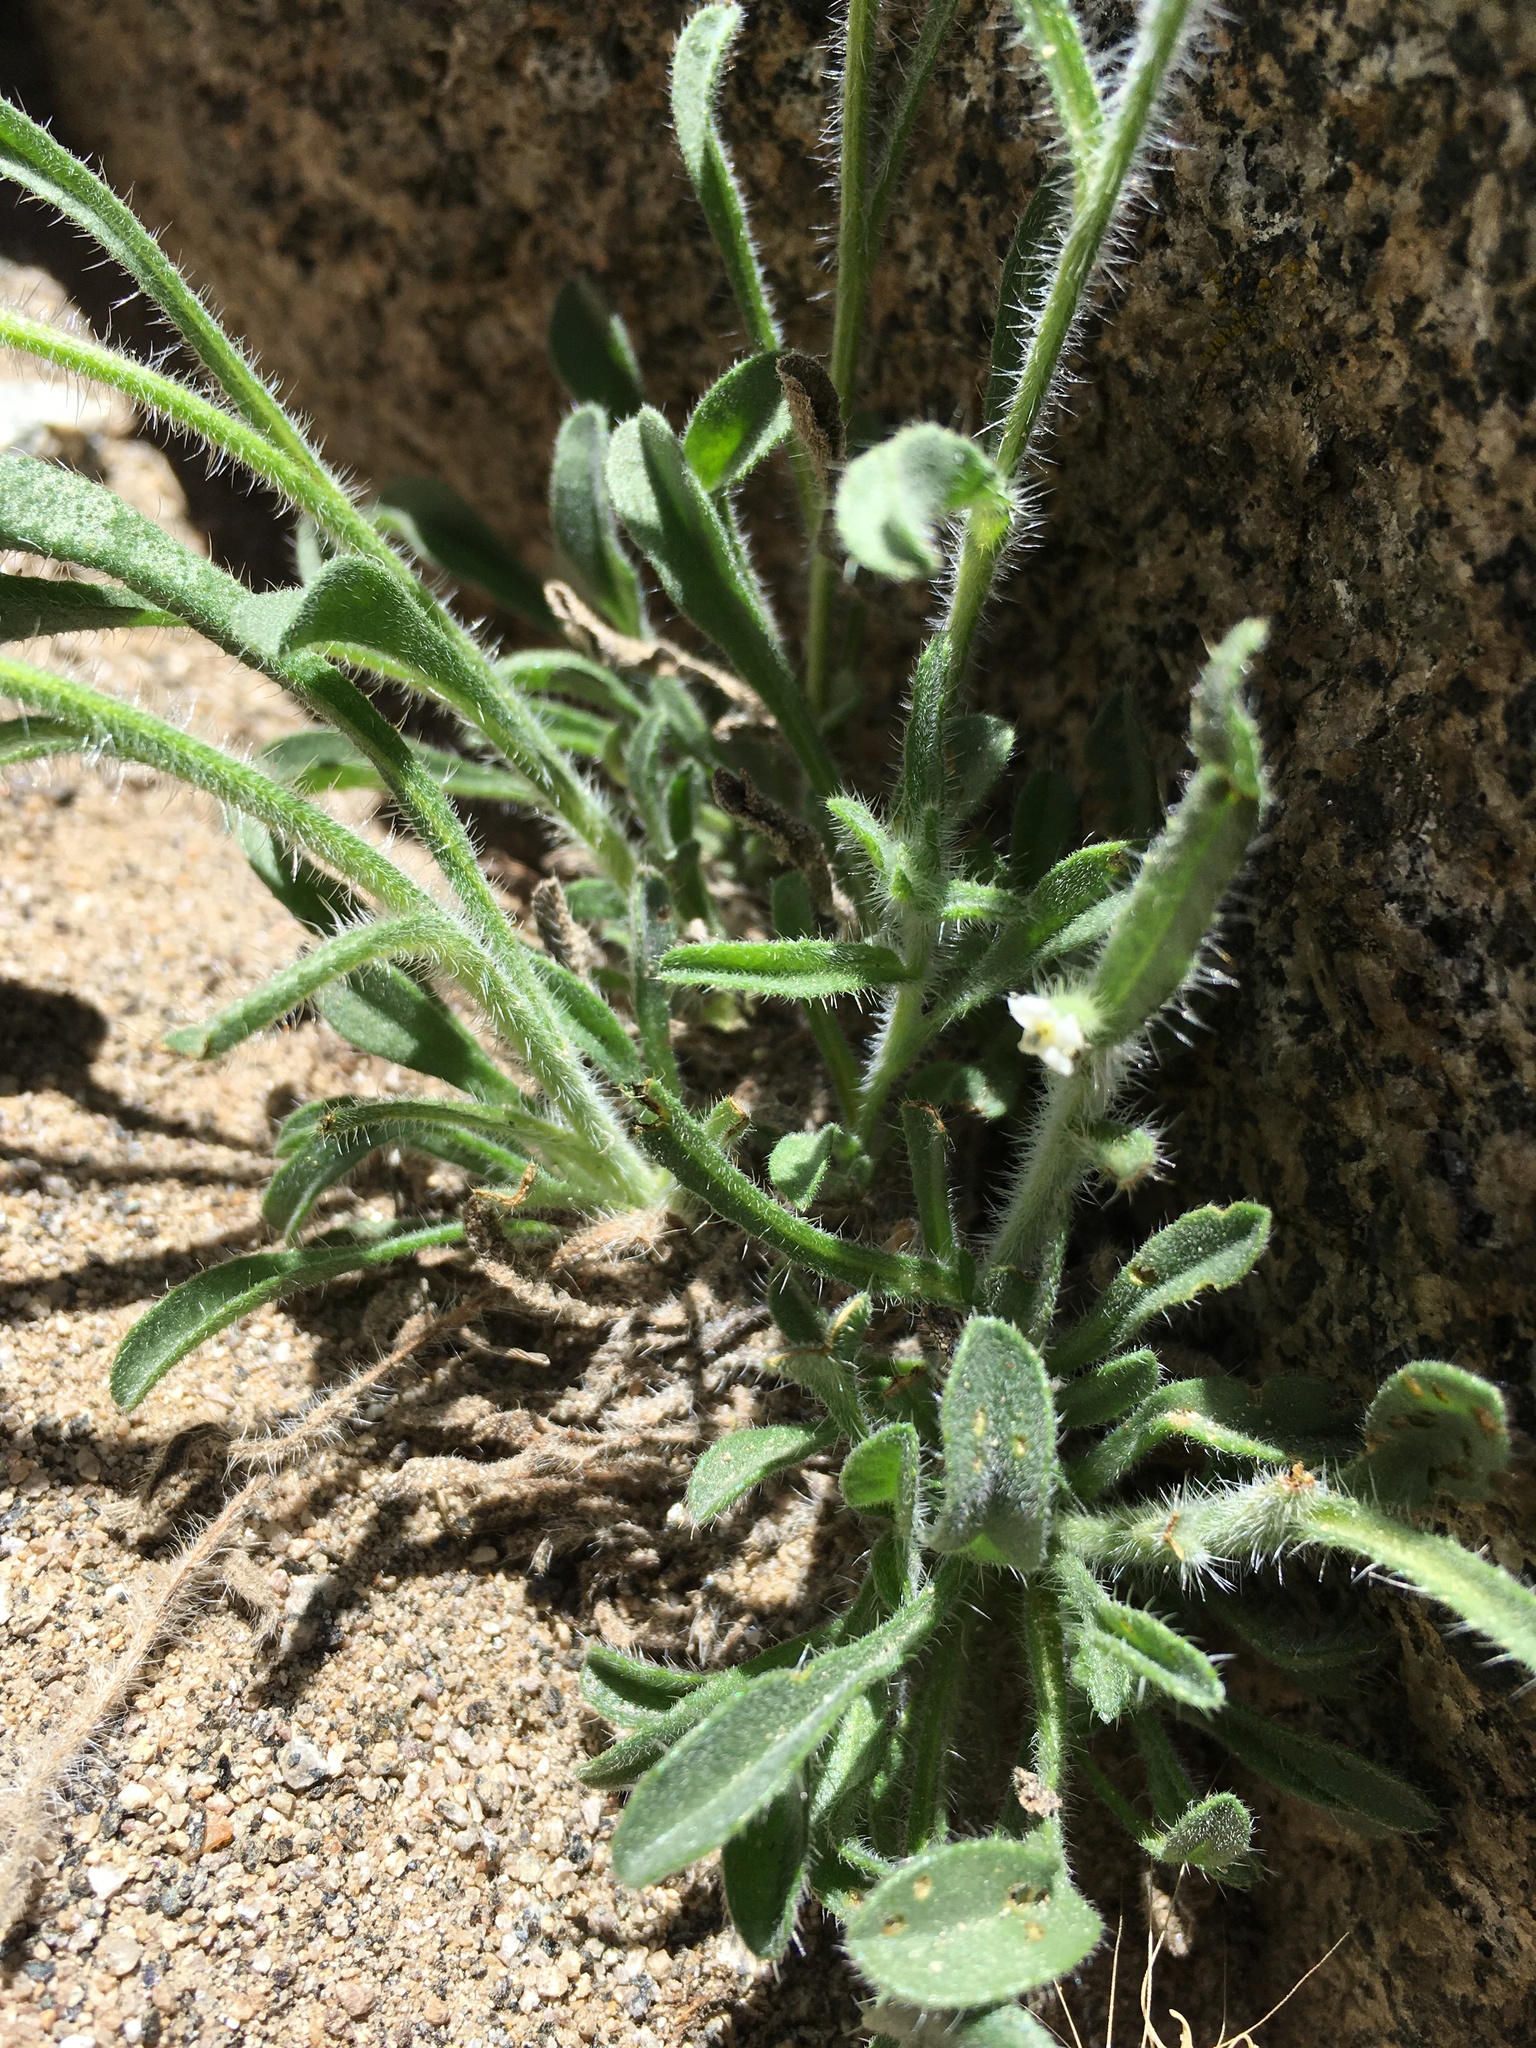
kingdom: Plantae
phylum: Tracheophyta
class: Magnoliopsida
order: Boraginales
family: Boraginaceae
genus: Oreocarya
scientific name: Oreocarya nubigena
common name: Sierra cryptantha
